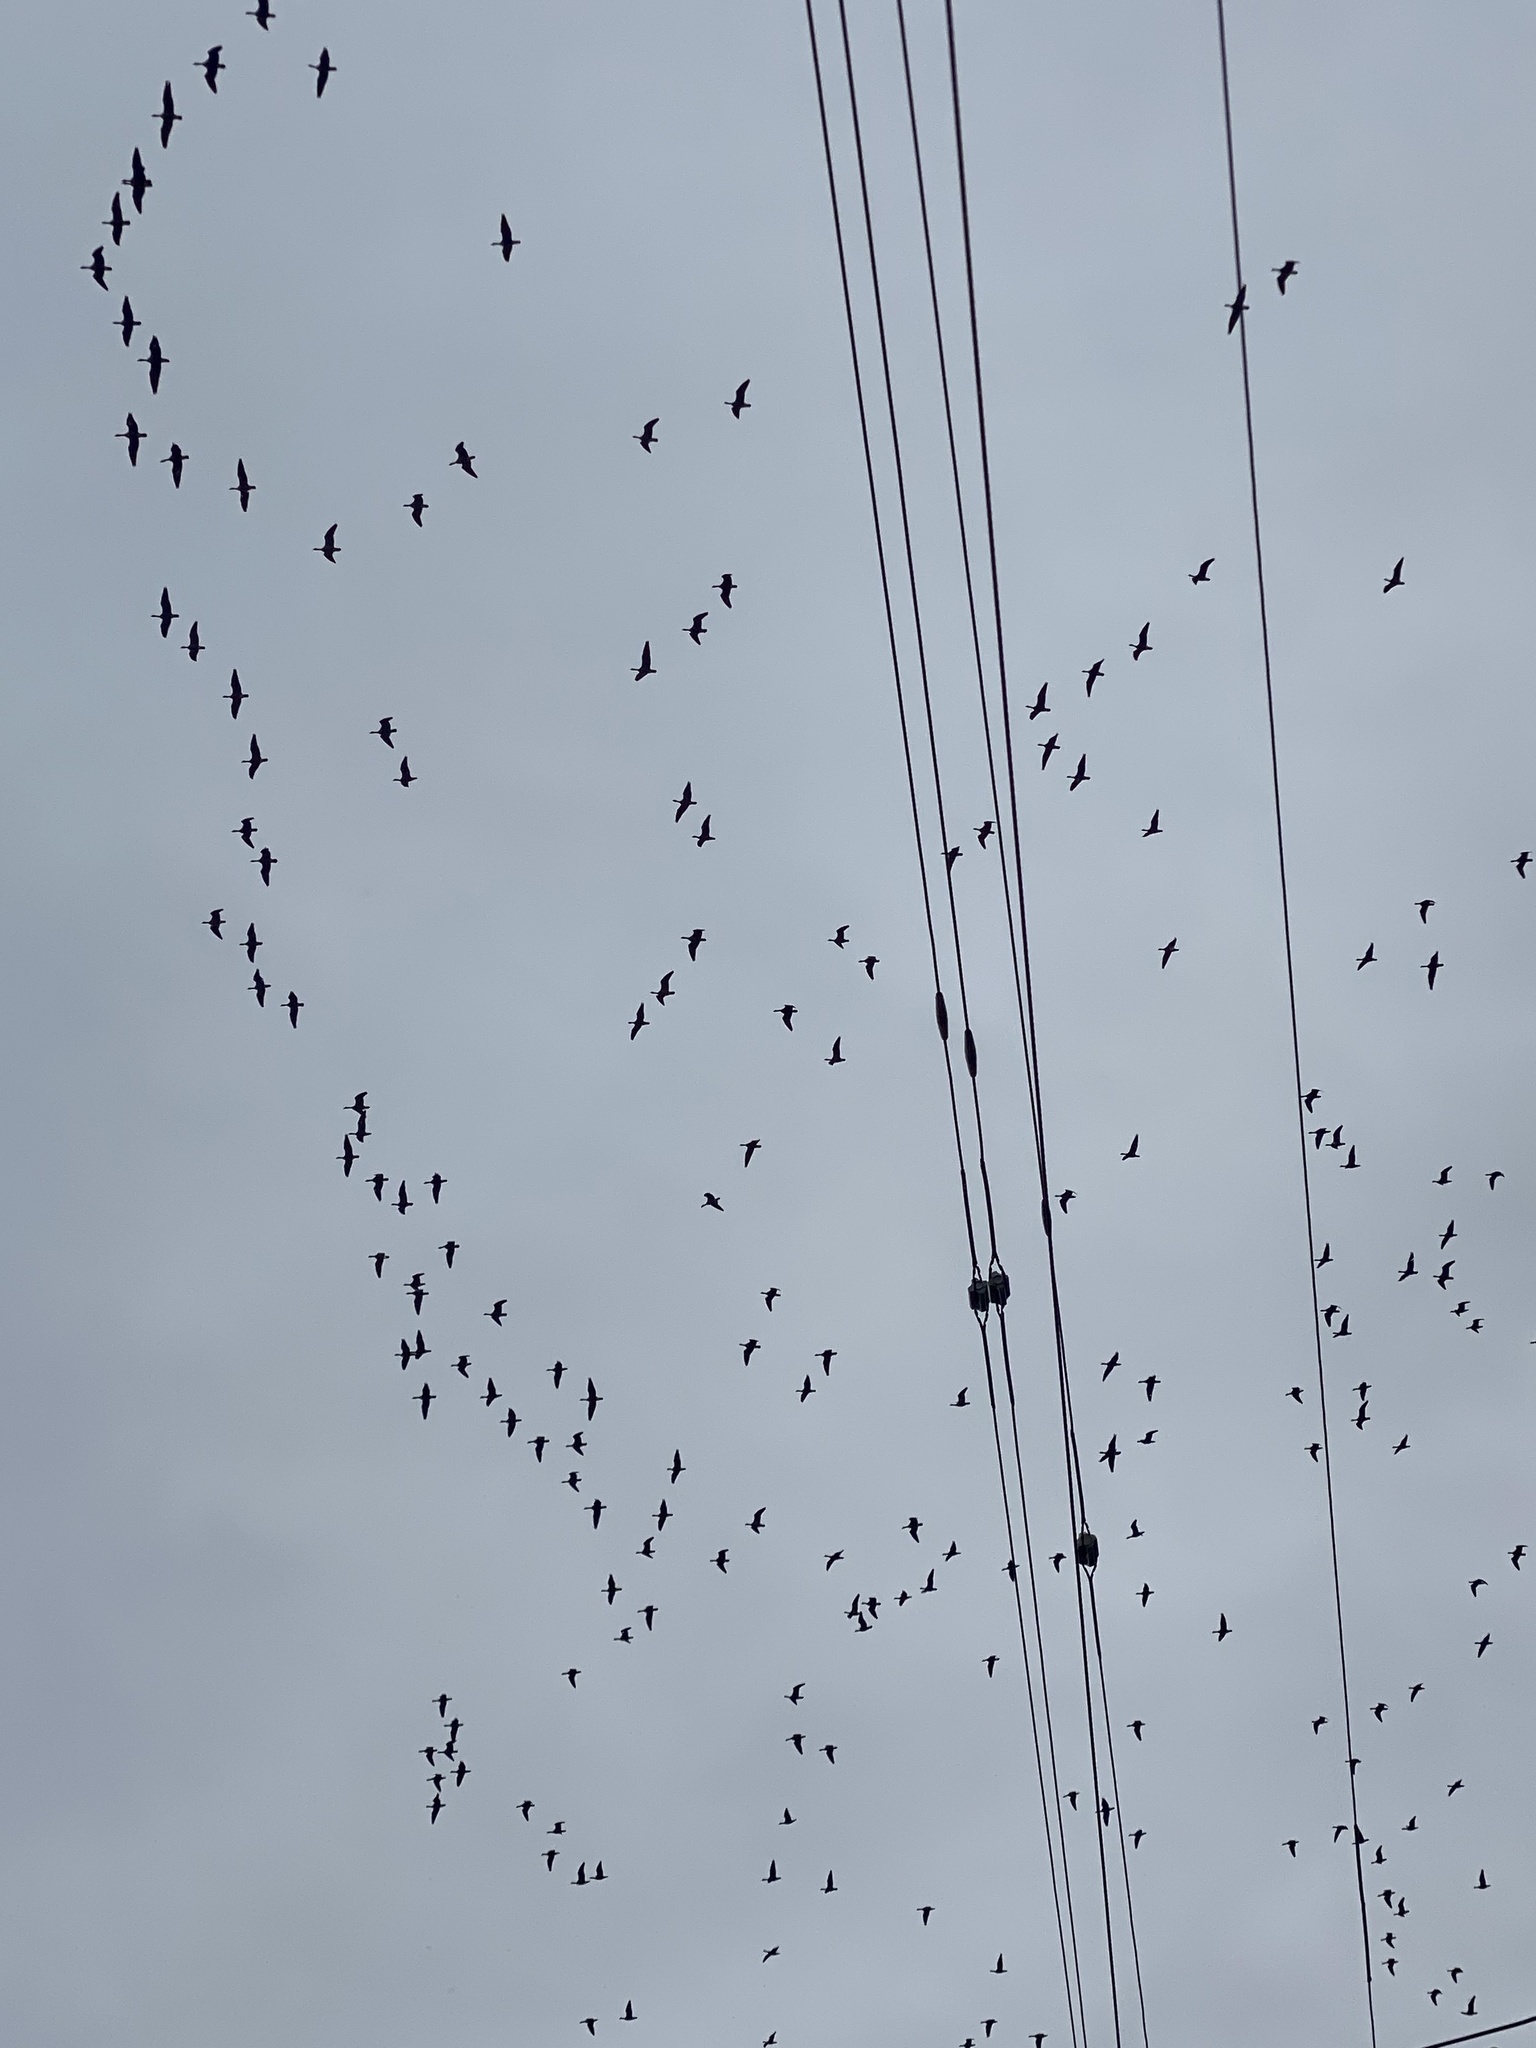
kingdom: Animalia
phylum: Chordata
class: Aves
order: Anseriformes
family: Anatidae
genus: Branta
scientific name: Branta hutchinsii
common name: Cackling goose
